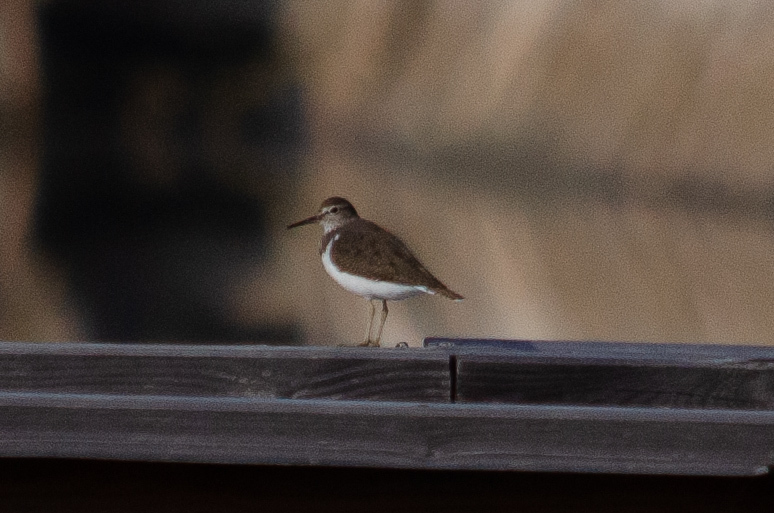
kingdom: Animalia
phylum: Chordata
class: Aves
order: Charadriiformes
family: Scolopacidae
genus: Actitis
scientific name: Actitis hypoleucos
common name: Common sandpiper
